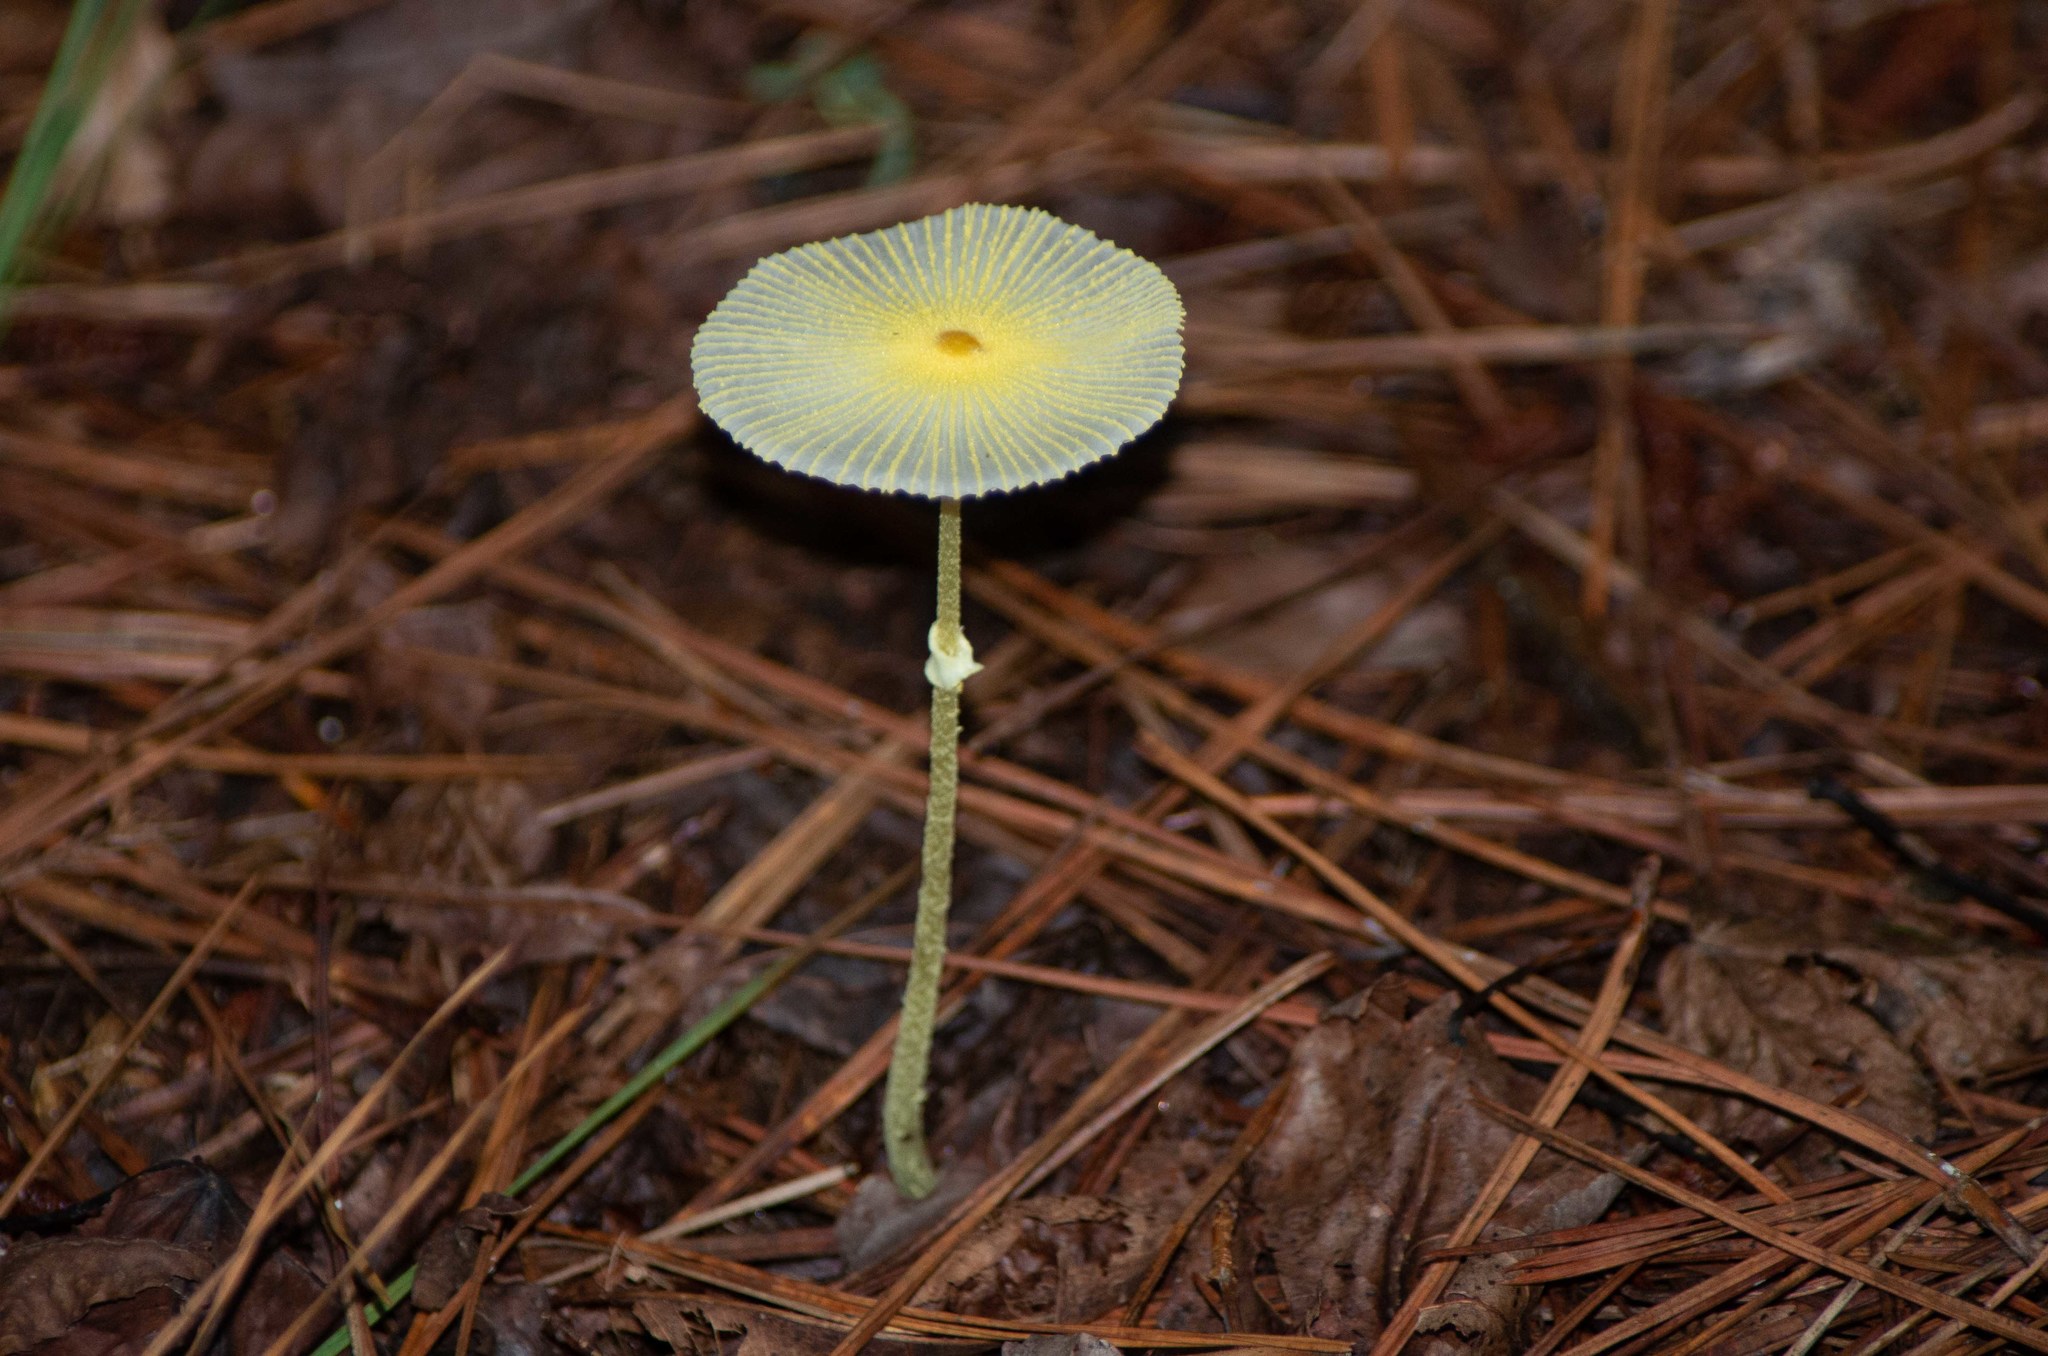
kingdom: Fungi
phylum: Basidiomycota
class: Agaricomycetes
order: Agaricales
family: Agaricaceae
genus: Leucocoprinus
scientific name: Leucocoprinus fragilissimus
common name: Fragile dapperling
